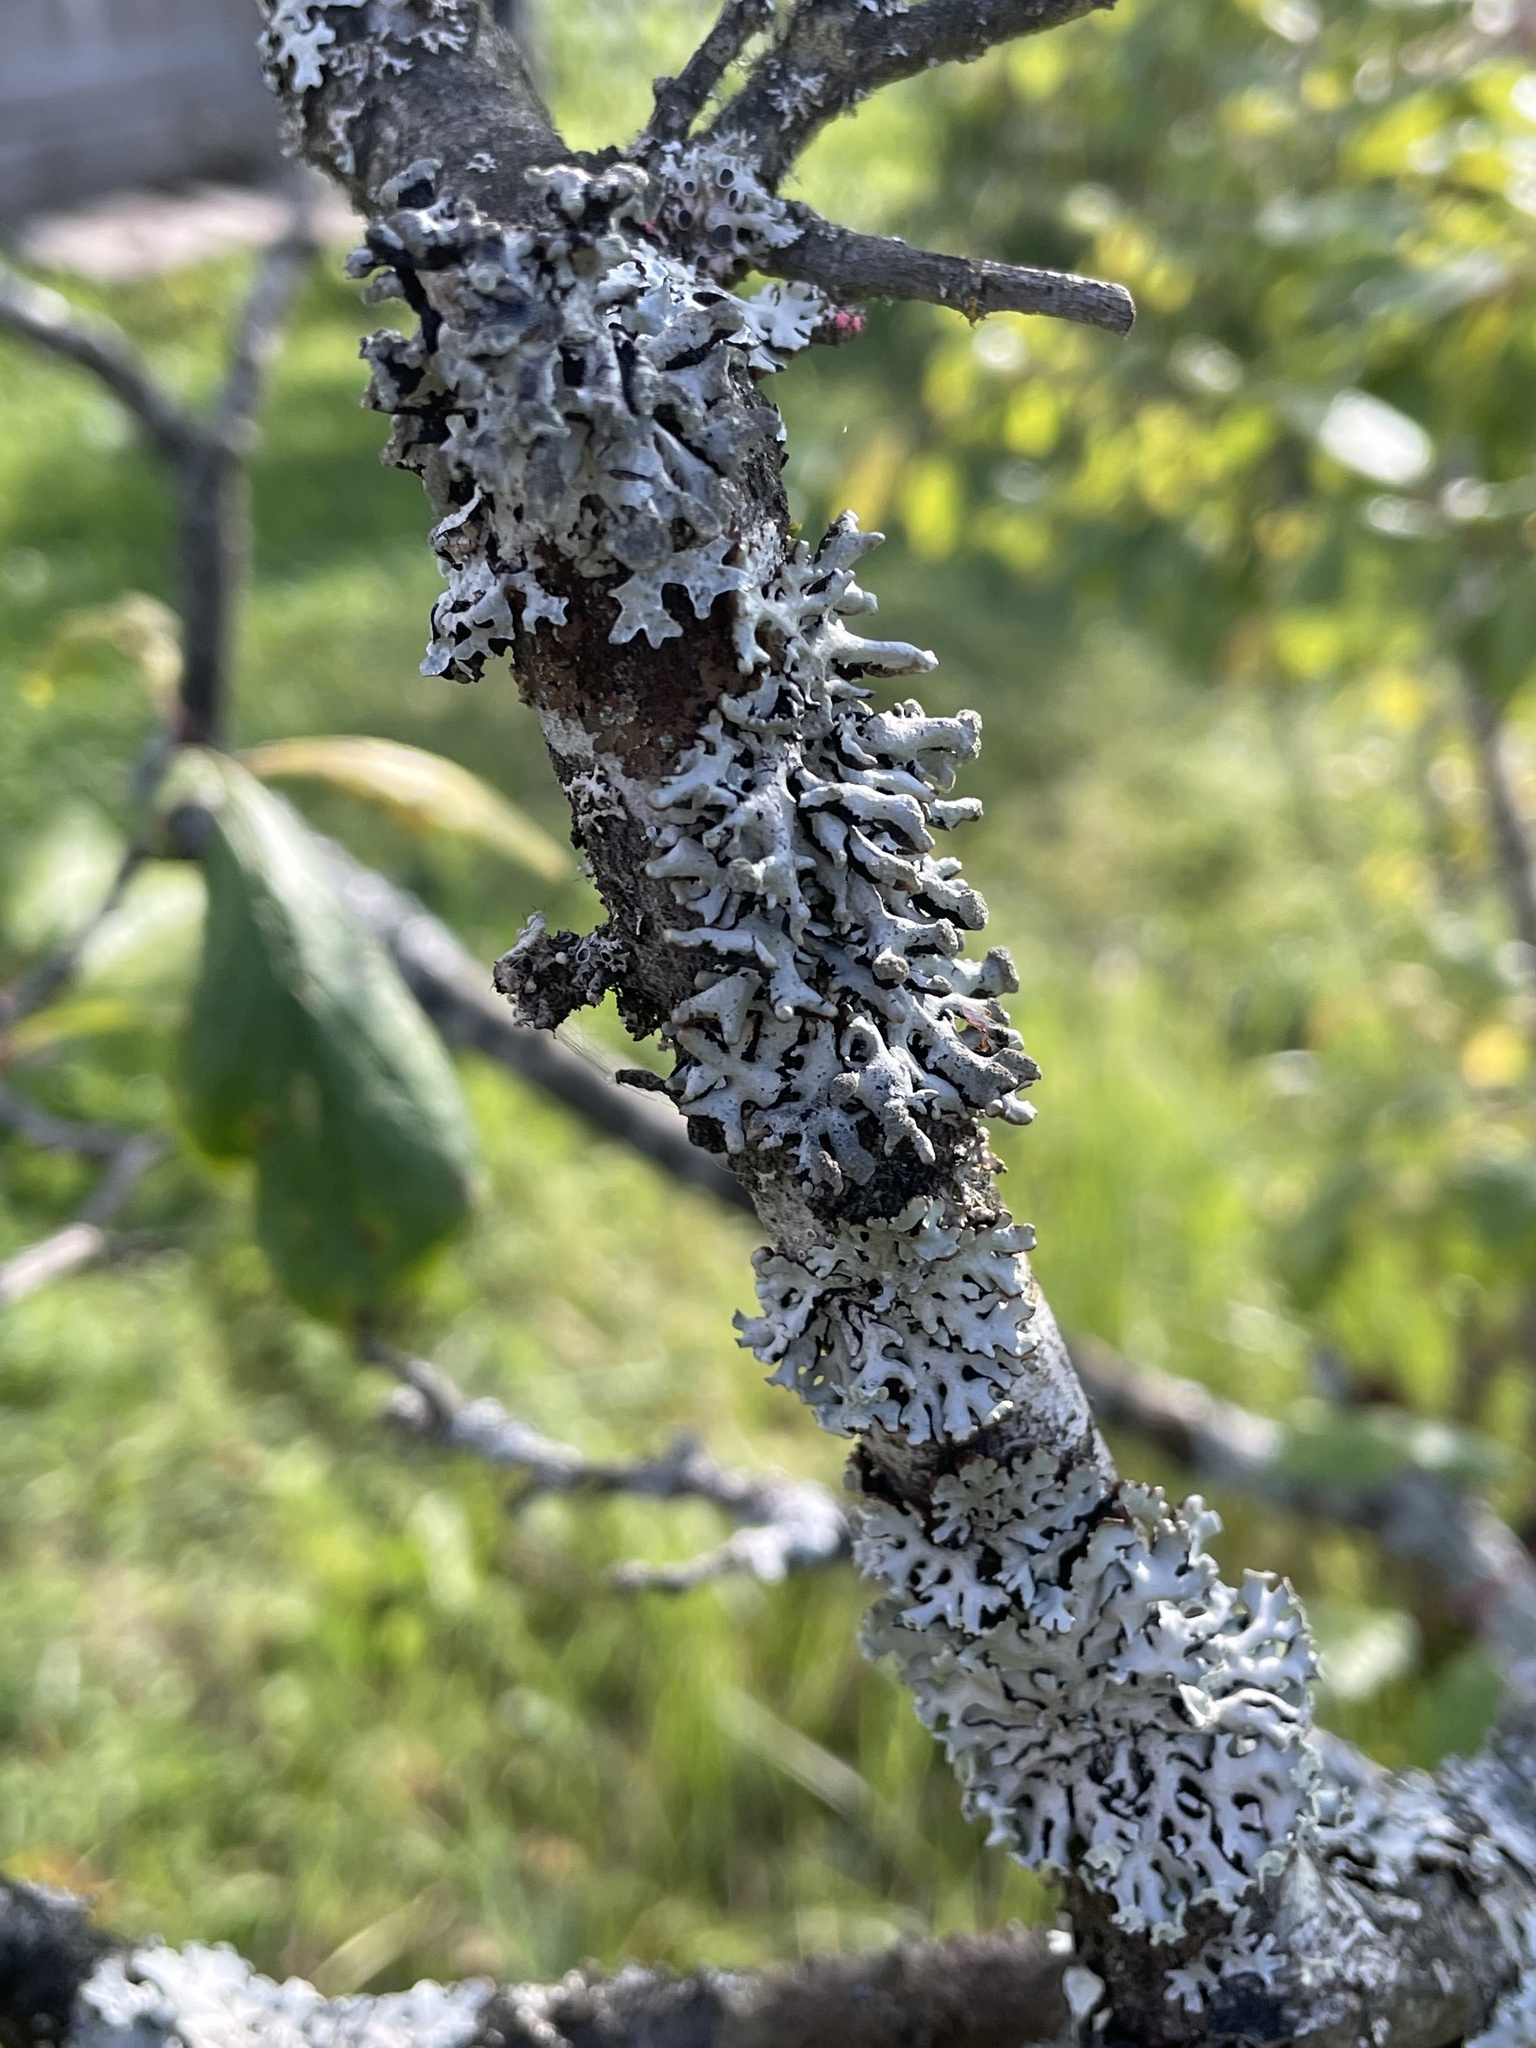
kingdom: Fungi
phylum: Ascomycota
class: Lecanoromycetes
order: Lecanorales
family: Parmeliaceae
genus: Hypogymnia
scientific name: Hypogymnia tubulosa
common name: Powder-headed tube lichen
